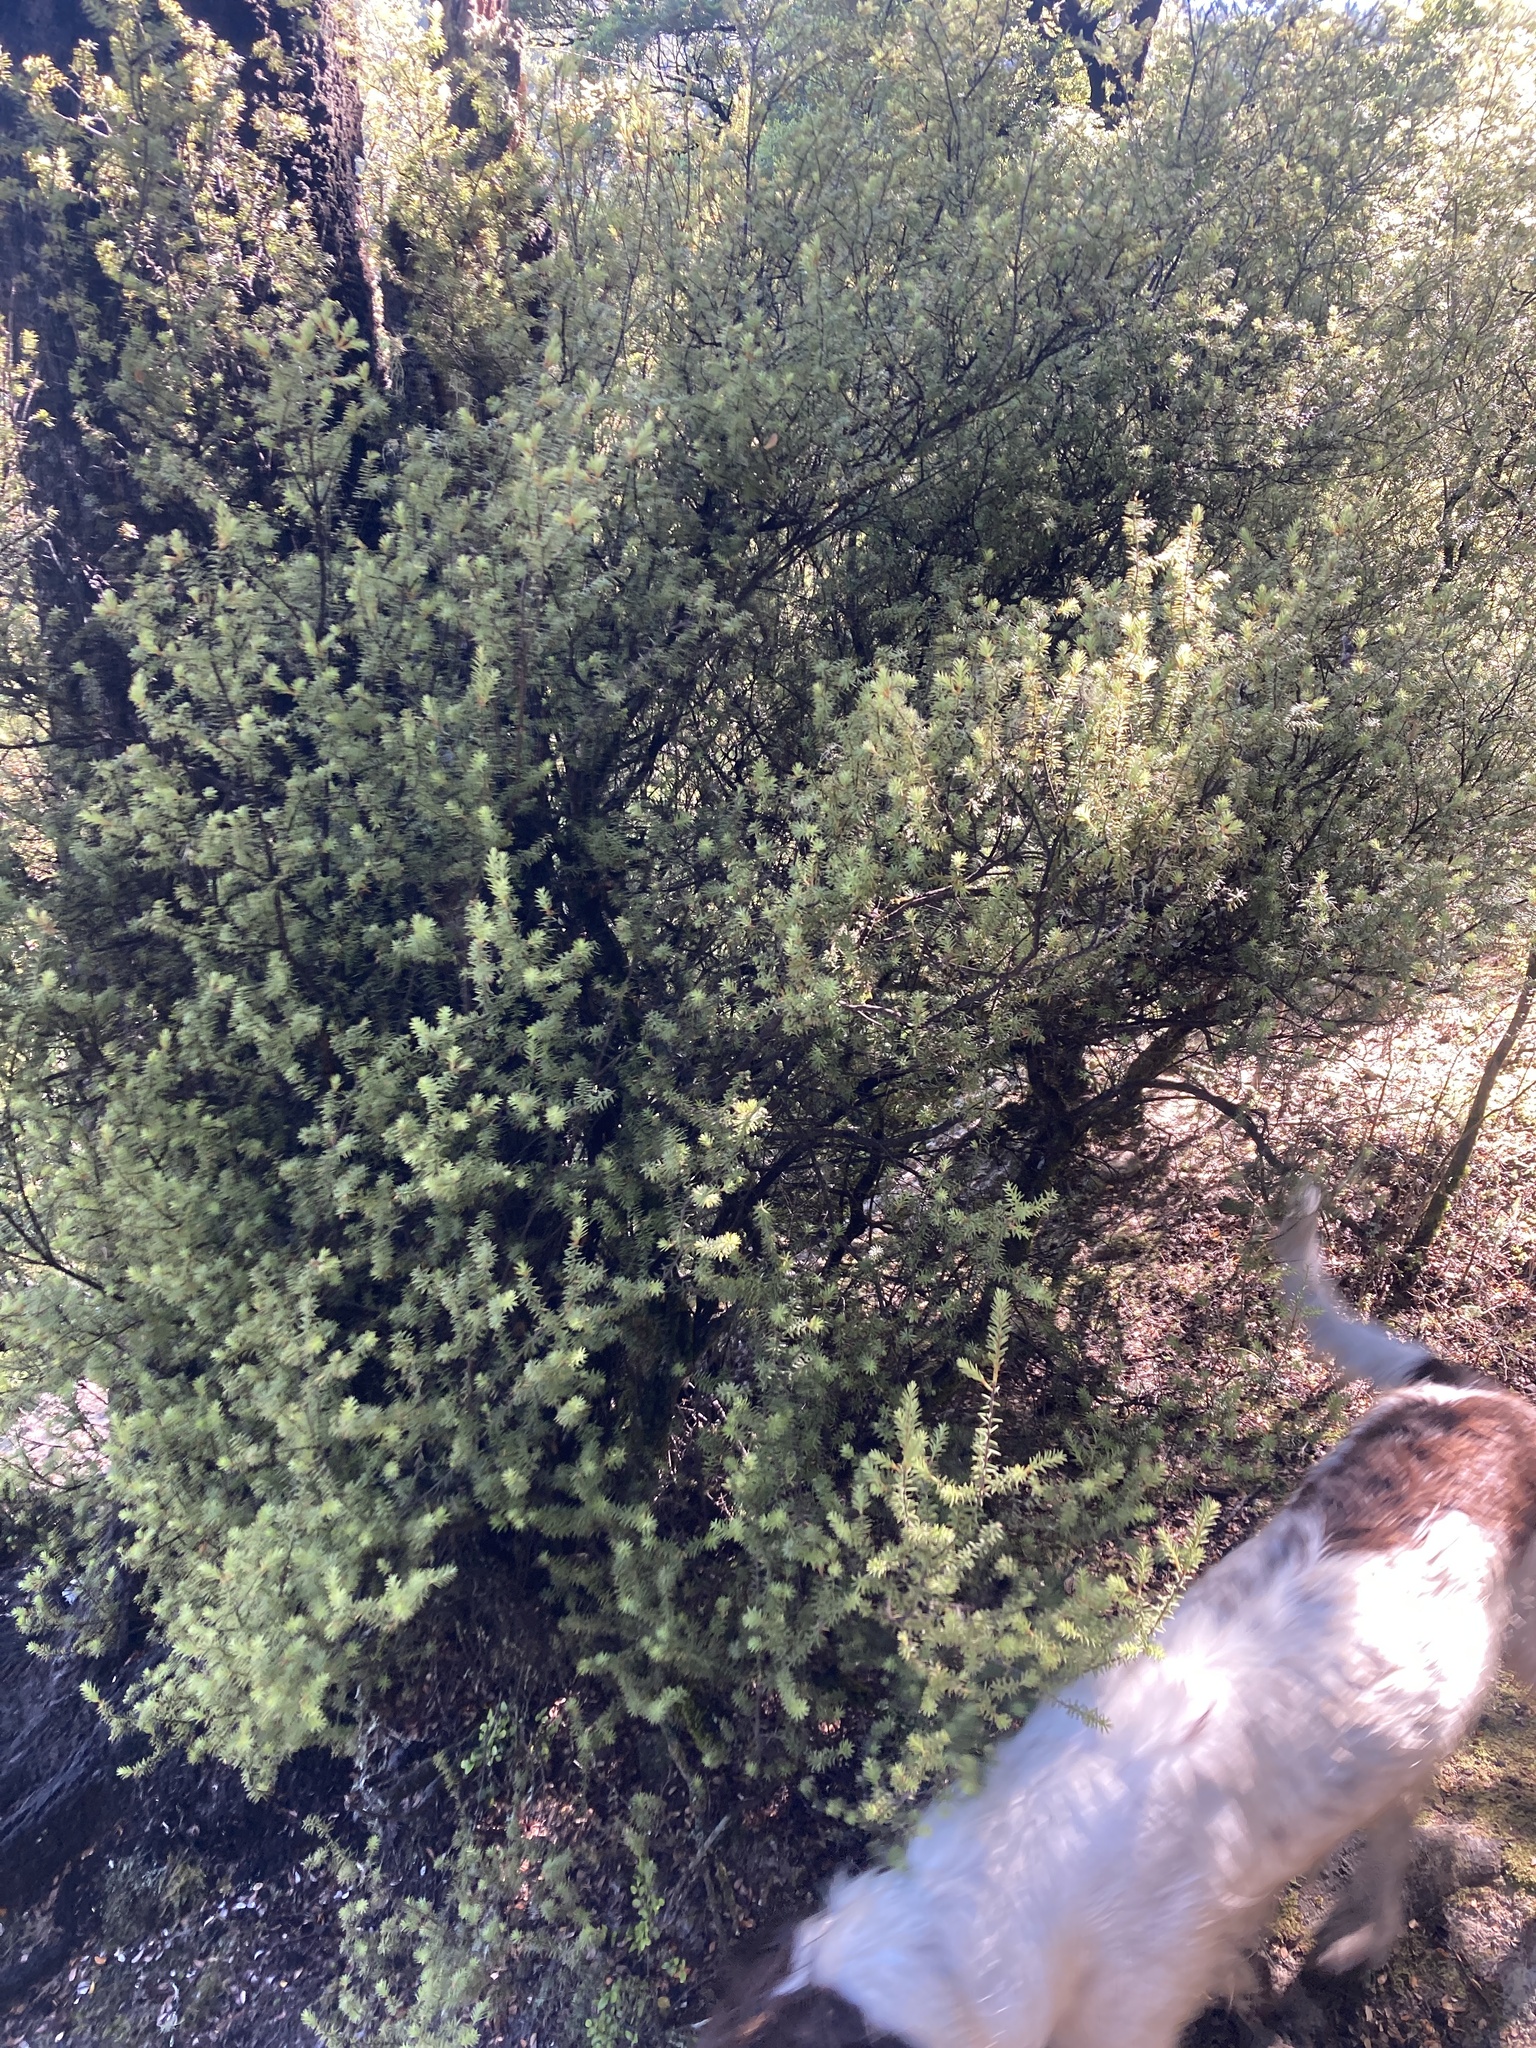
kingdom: Plantae
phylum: Tracheophyta
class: Magnoliopsida
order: Ericales
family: Ericaceae
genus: Leptecophylla
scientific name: Leptecophylla juniperina
